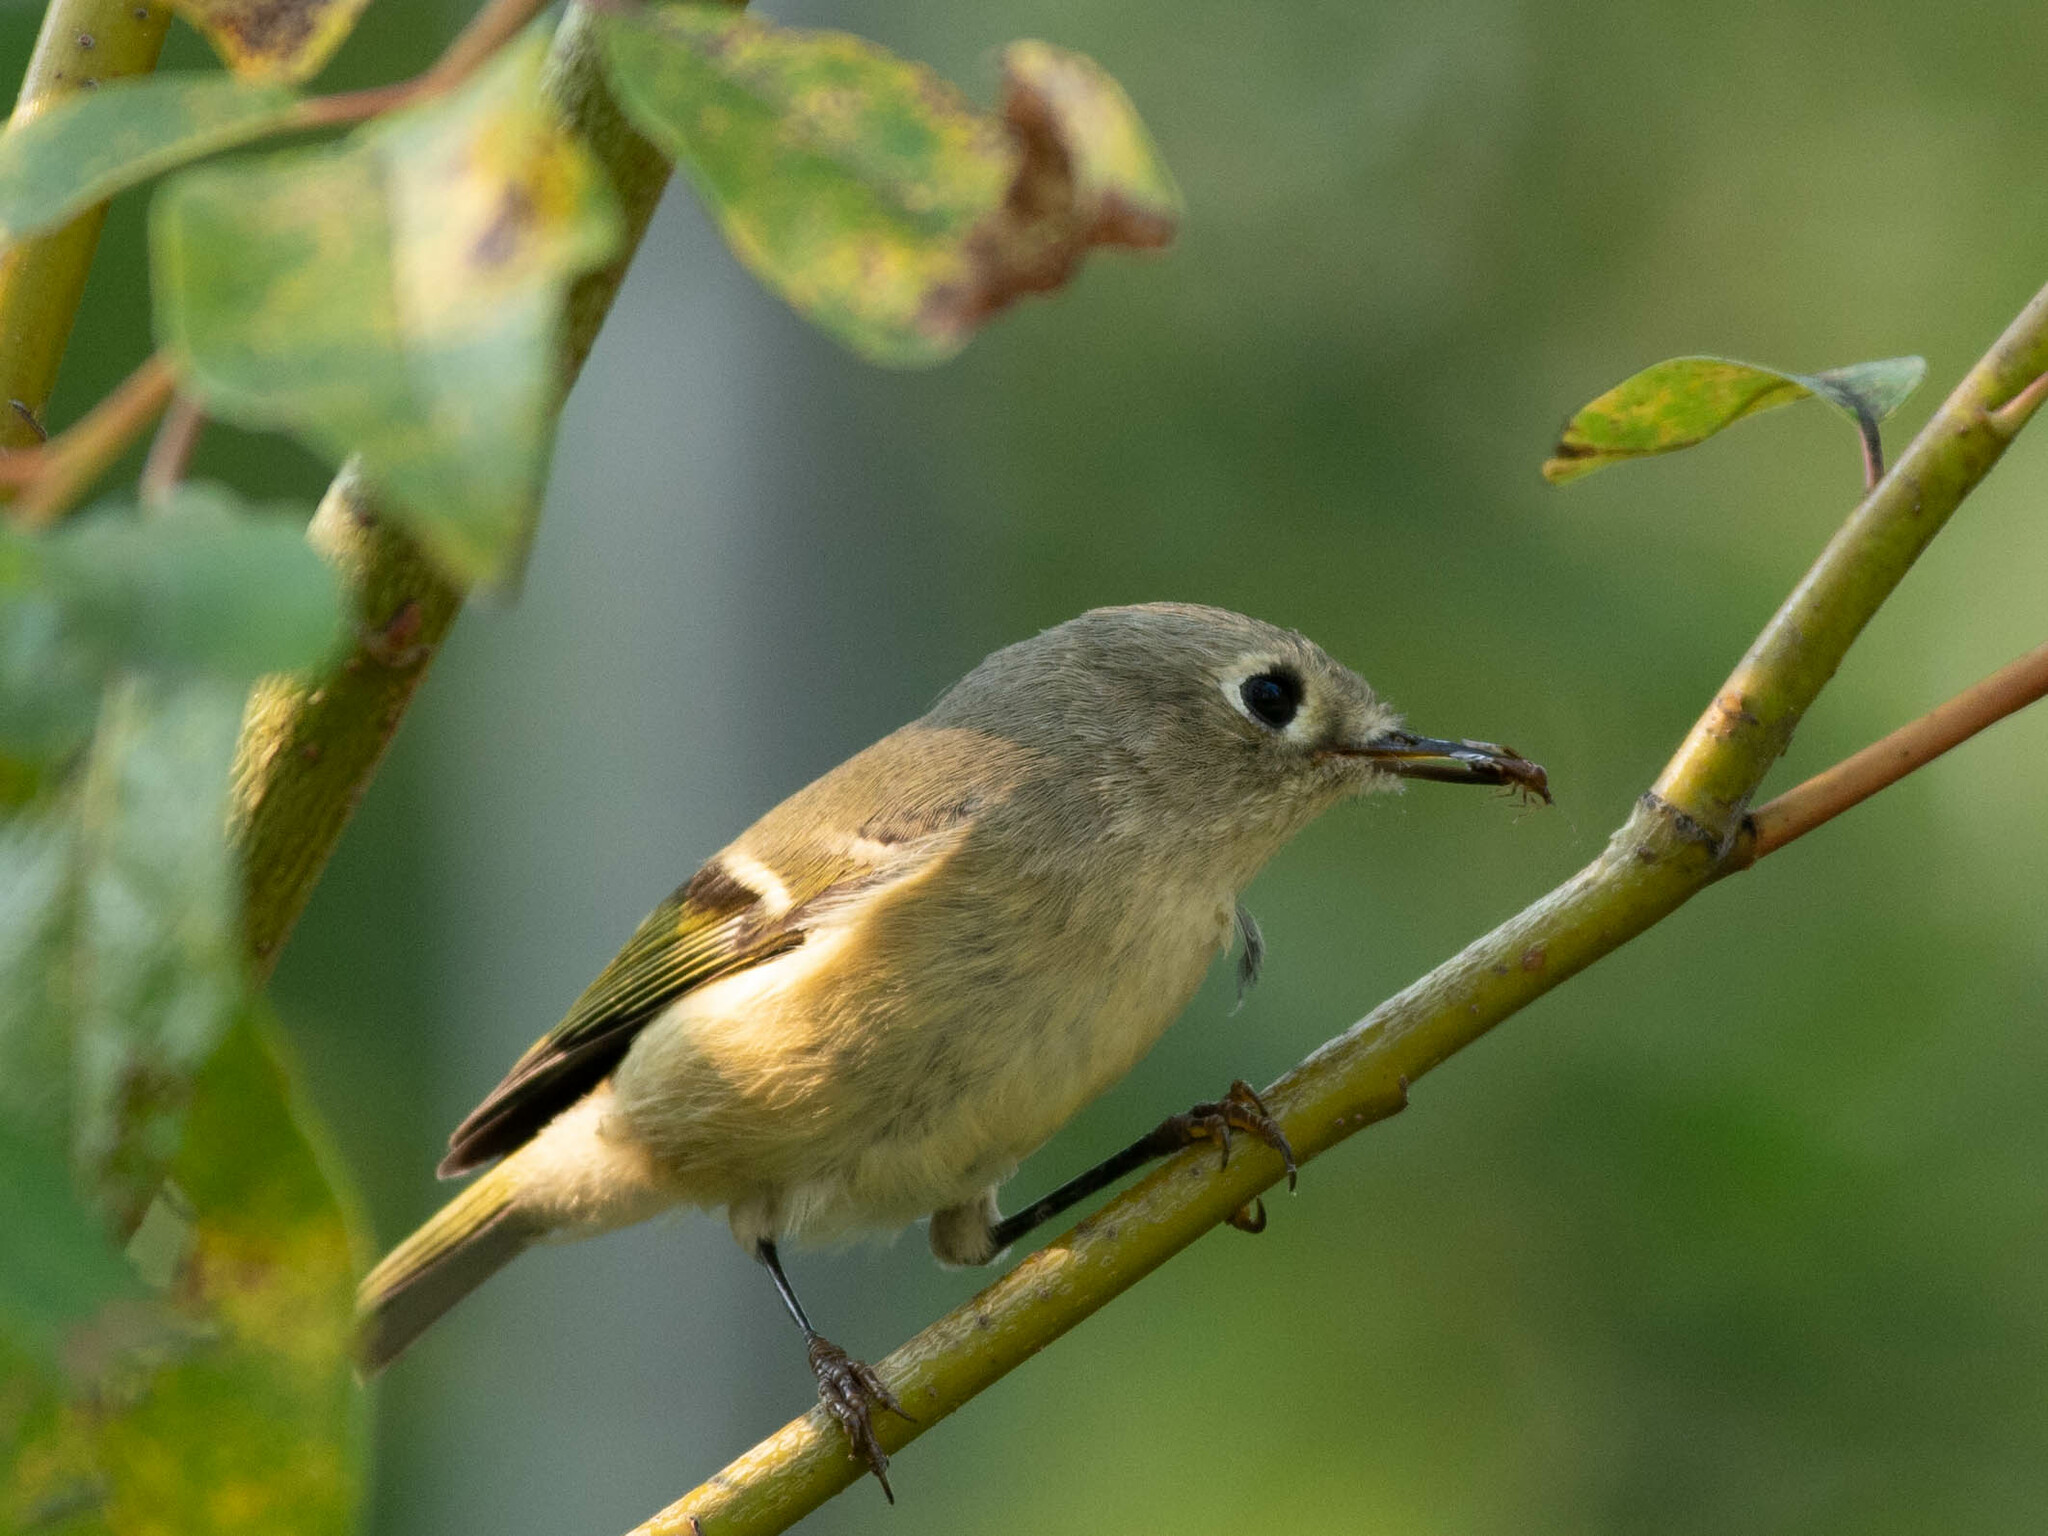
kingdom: Animalia
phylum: Chordata
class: Aves
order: Passeriformes
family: Regulidae
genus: Regulus
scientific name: Regulus calendula
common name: Ruby-crowned kinglet
